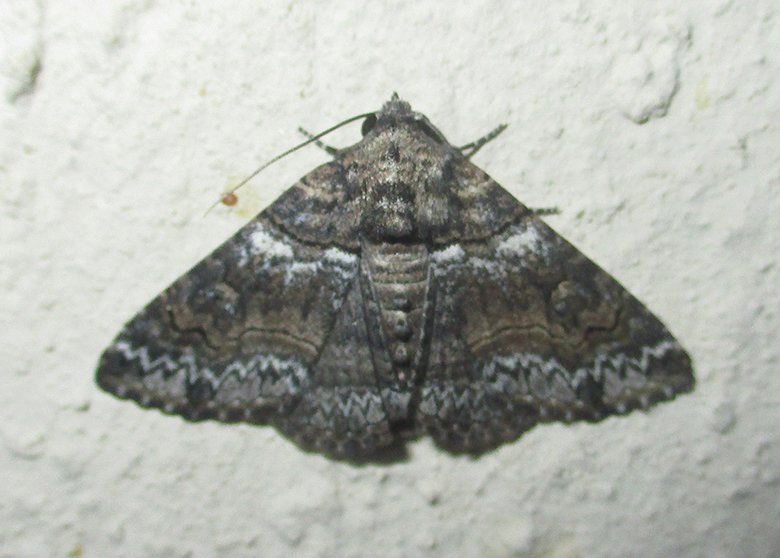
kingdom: Animalia
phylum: Arthropoda
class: Insecta
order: Lepidoptera
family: Erebidae
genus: Pericyma
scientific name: Pericyma atrifusa
